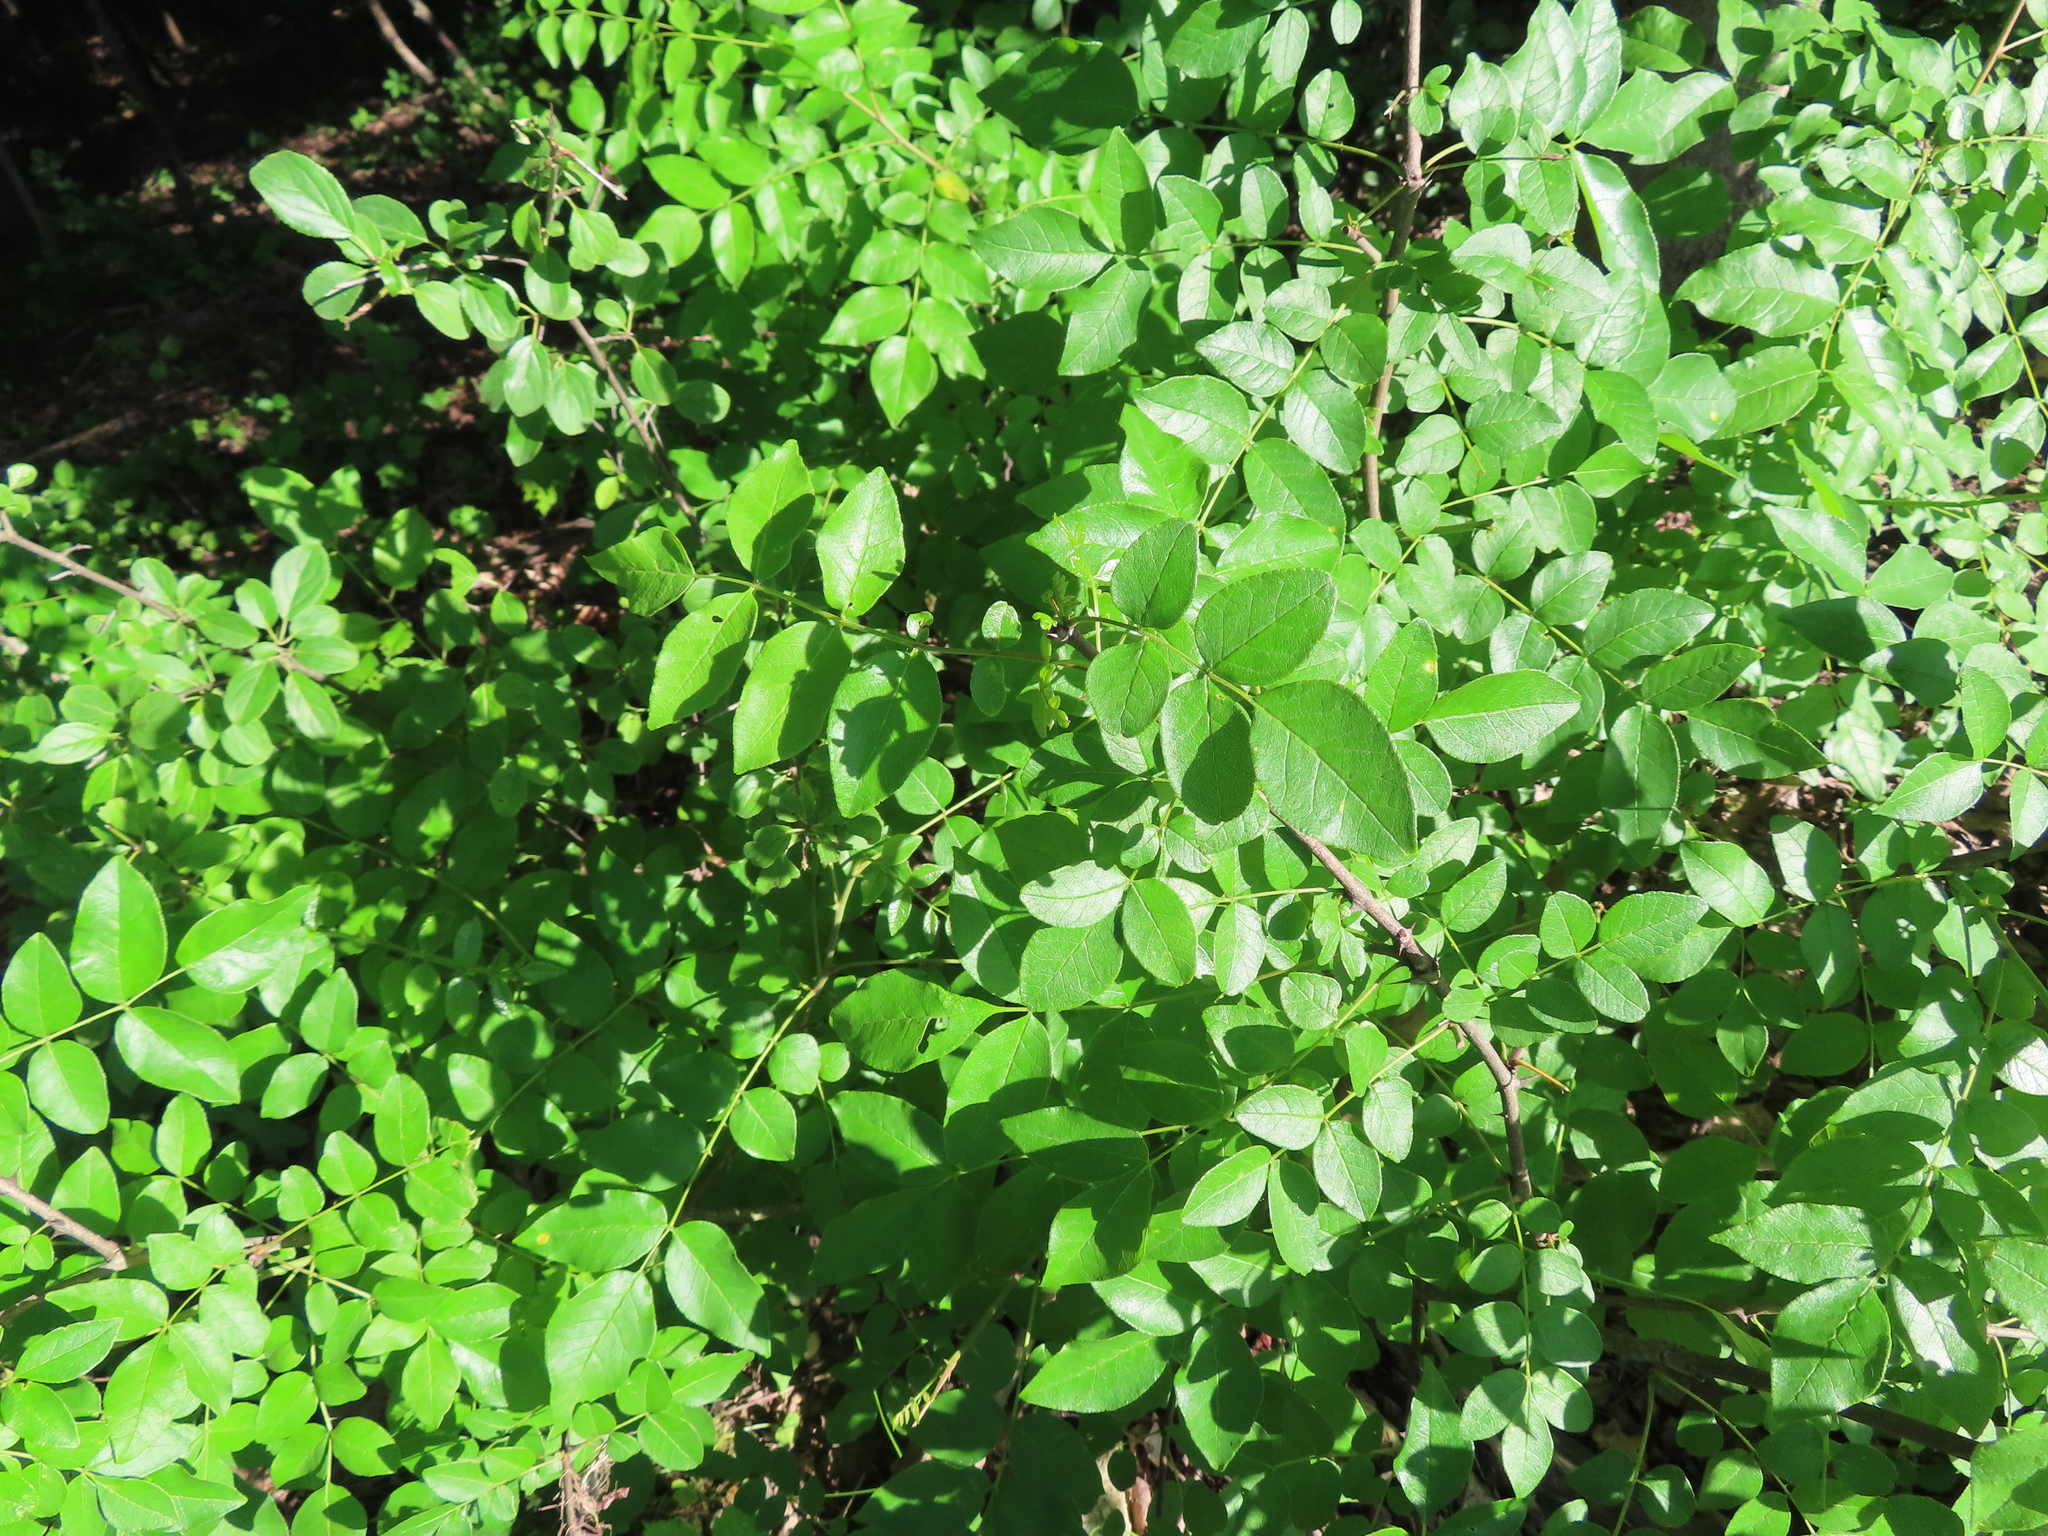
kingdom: Plantae
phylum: Tracheophyta
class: Magnoliopsida
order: Sapindales
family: Rutaceae
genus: Zanthoxylum
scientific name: Zanthoxylum americanum
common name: Northern prickly-ash
